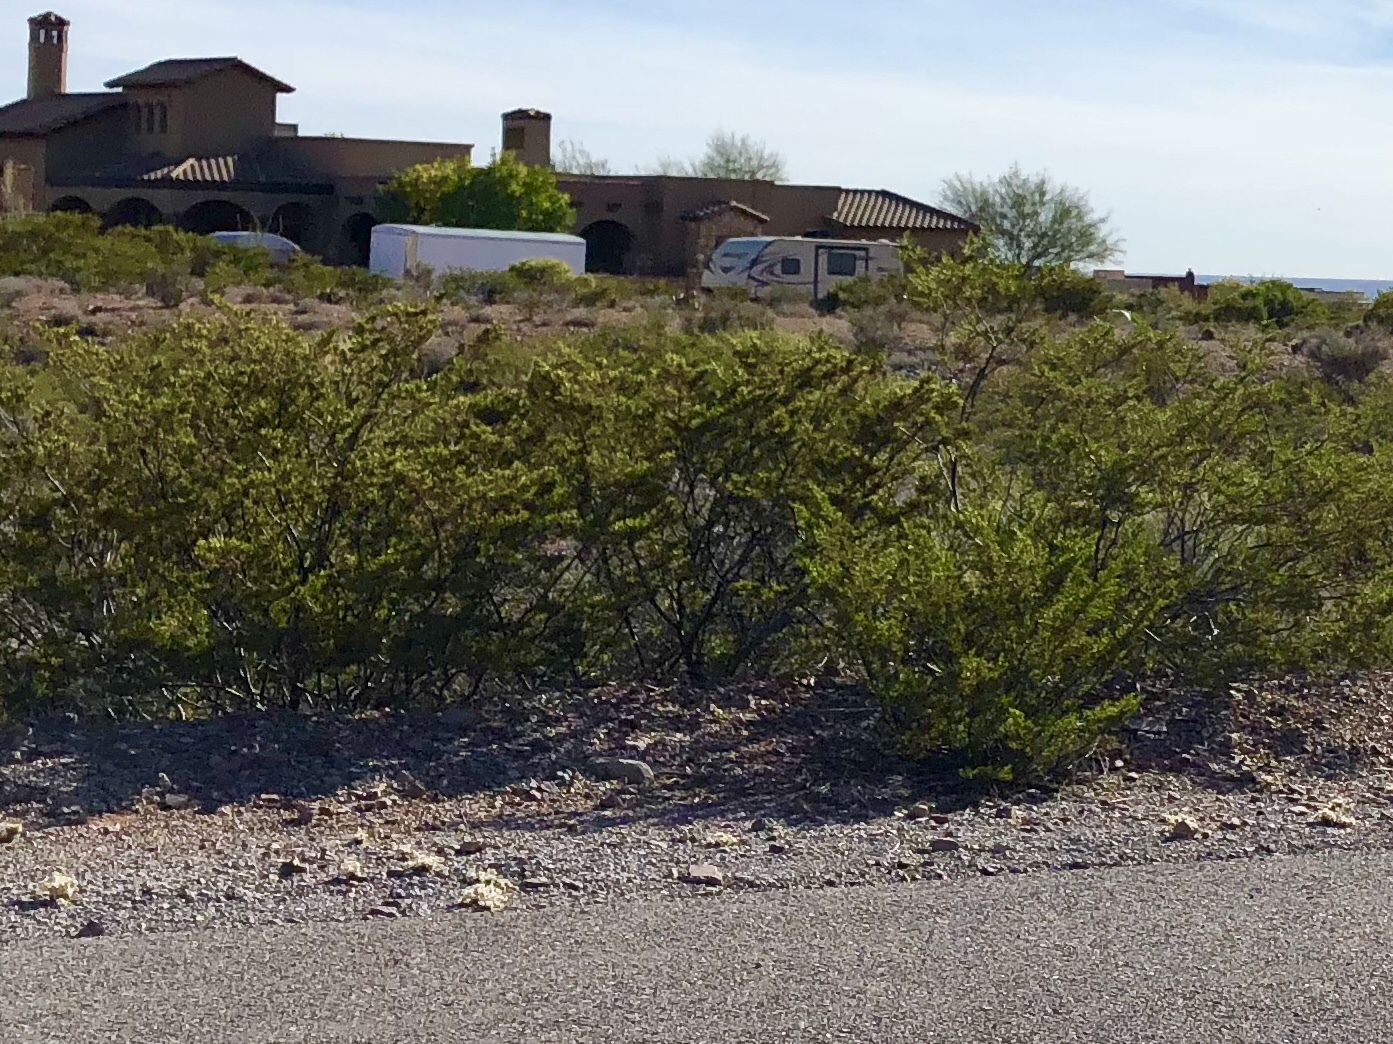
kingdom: Plantae
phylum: Tracheophyta
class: Magnoliopsida
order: Zygophyllales
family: Zygophyllaceae
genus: Larrea
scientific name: Larrea tridentata
